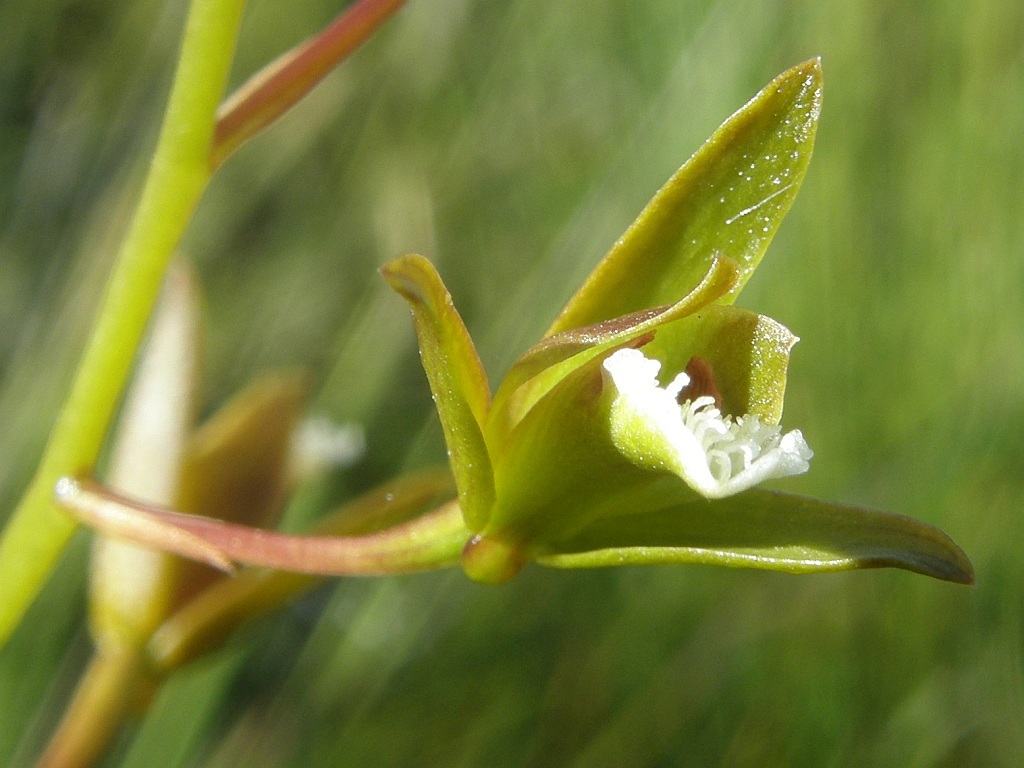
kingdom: Plantae
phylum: Tracheophyta
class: Liliopsida
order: Asparagales
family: Orchidaceae
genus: Eulophia
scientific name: Eulophia tristis
